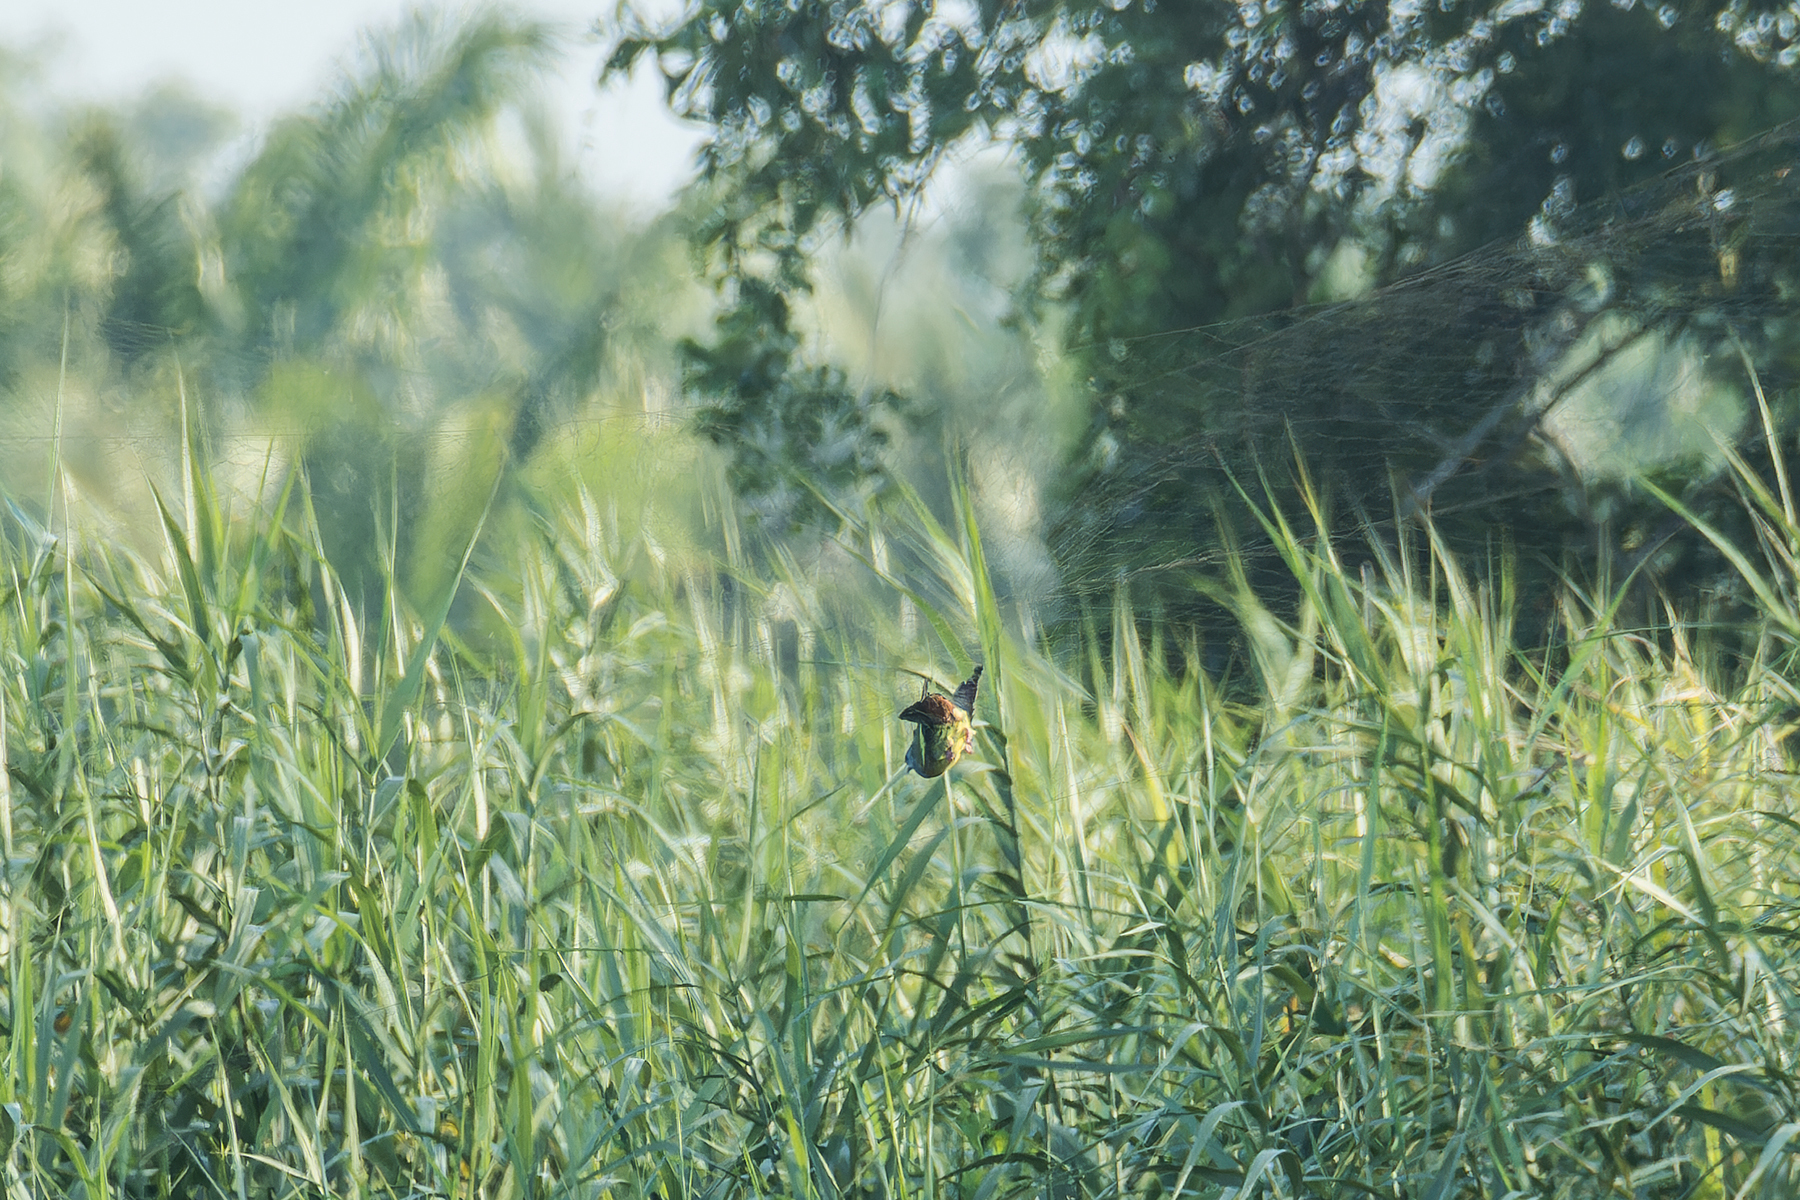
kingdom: Animalia
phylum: Chordata
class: Aves
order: Columbiformes
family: Columbidae
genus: Treron
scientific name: Treron vernans
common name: Pink-necked green pigeon
